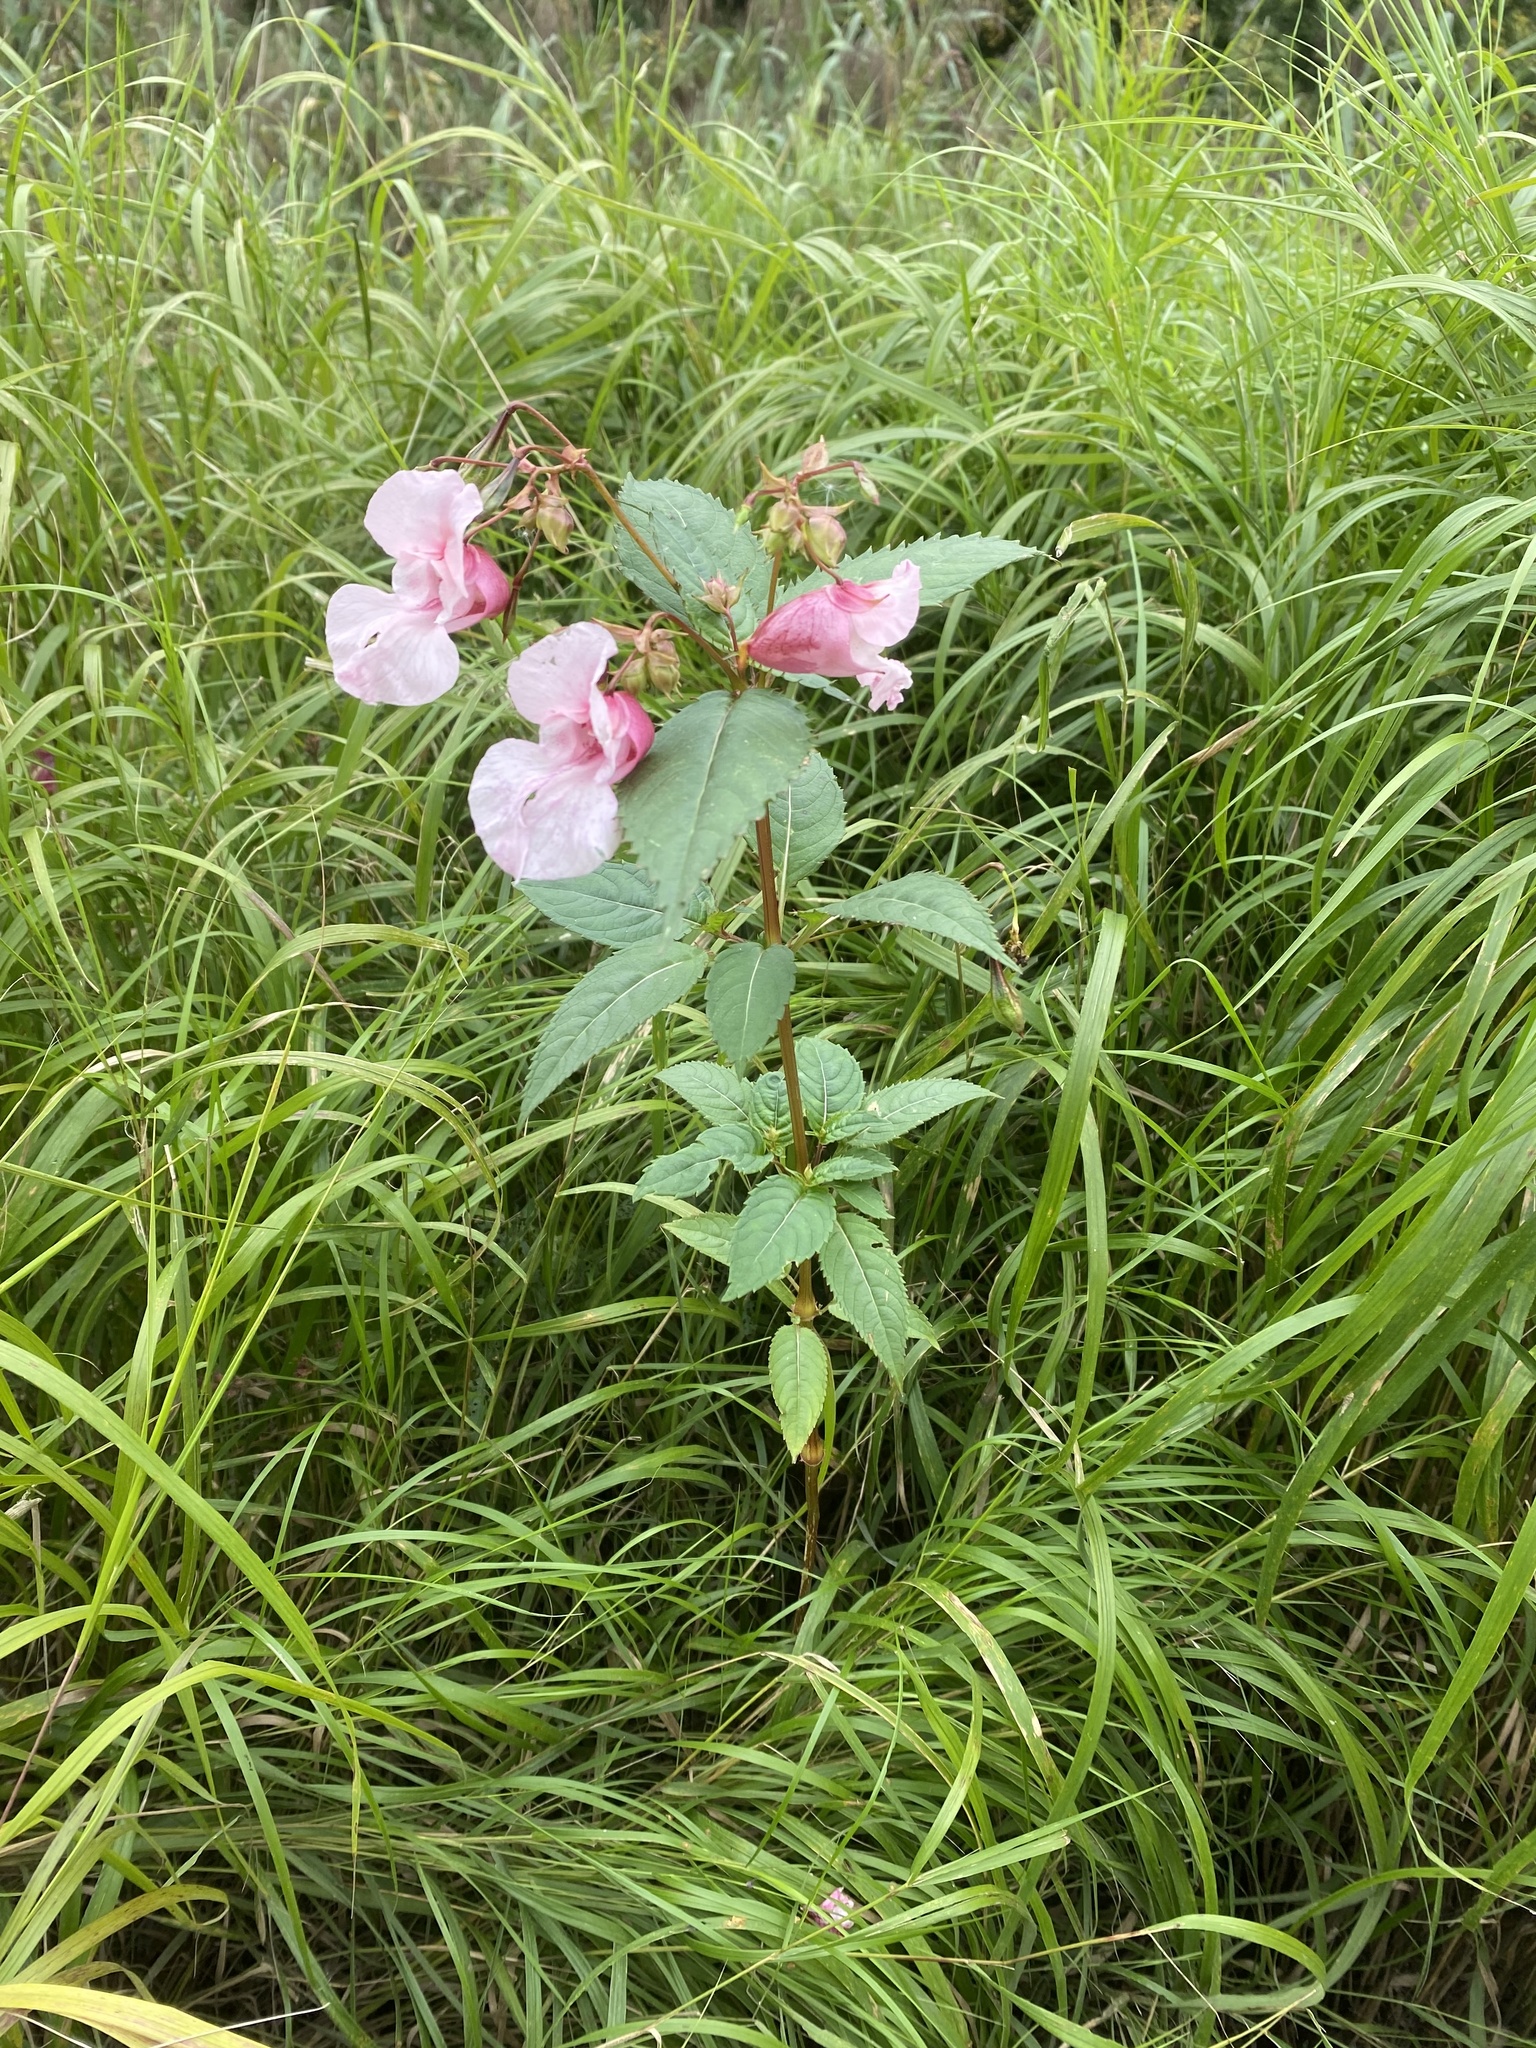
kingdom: Plantae
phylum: Tracheophyta
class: Magnoliopsida
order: Ericales
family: Balsaminaceae
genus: Impatiens
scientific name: Impatiens glandulifera
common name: Himalayan balsam
